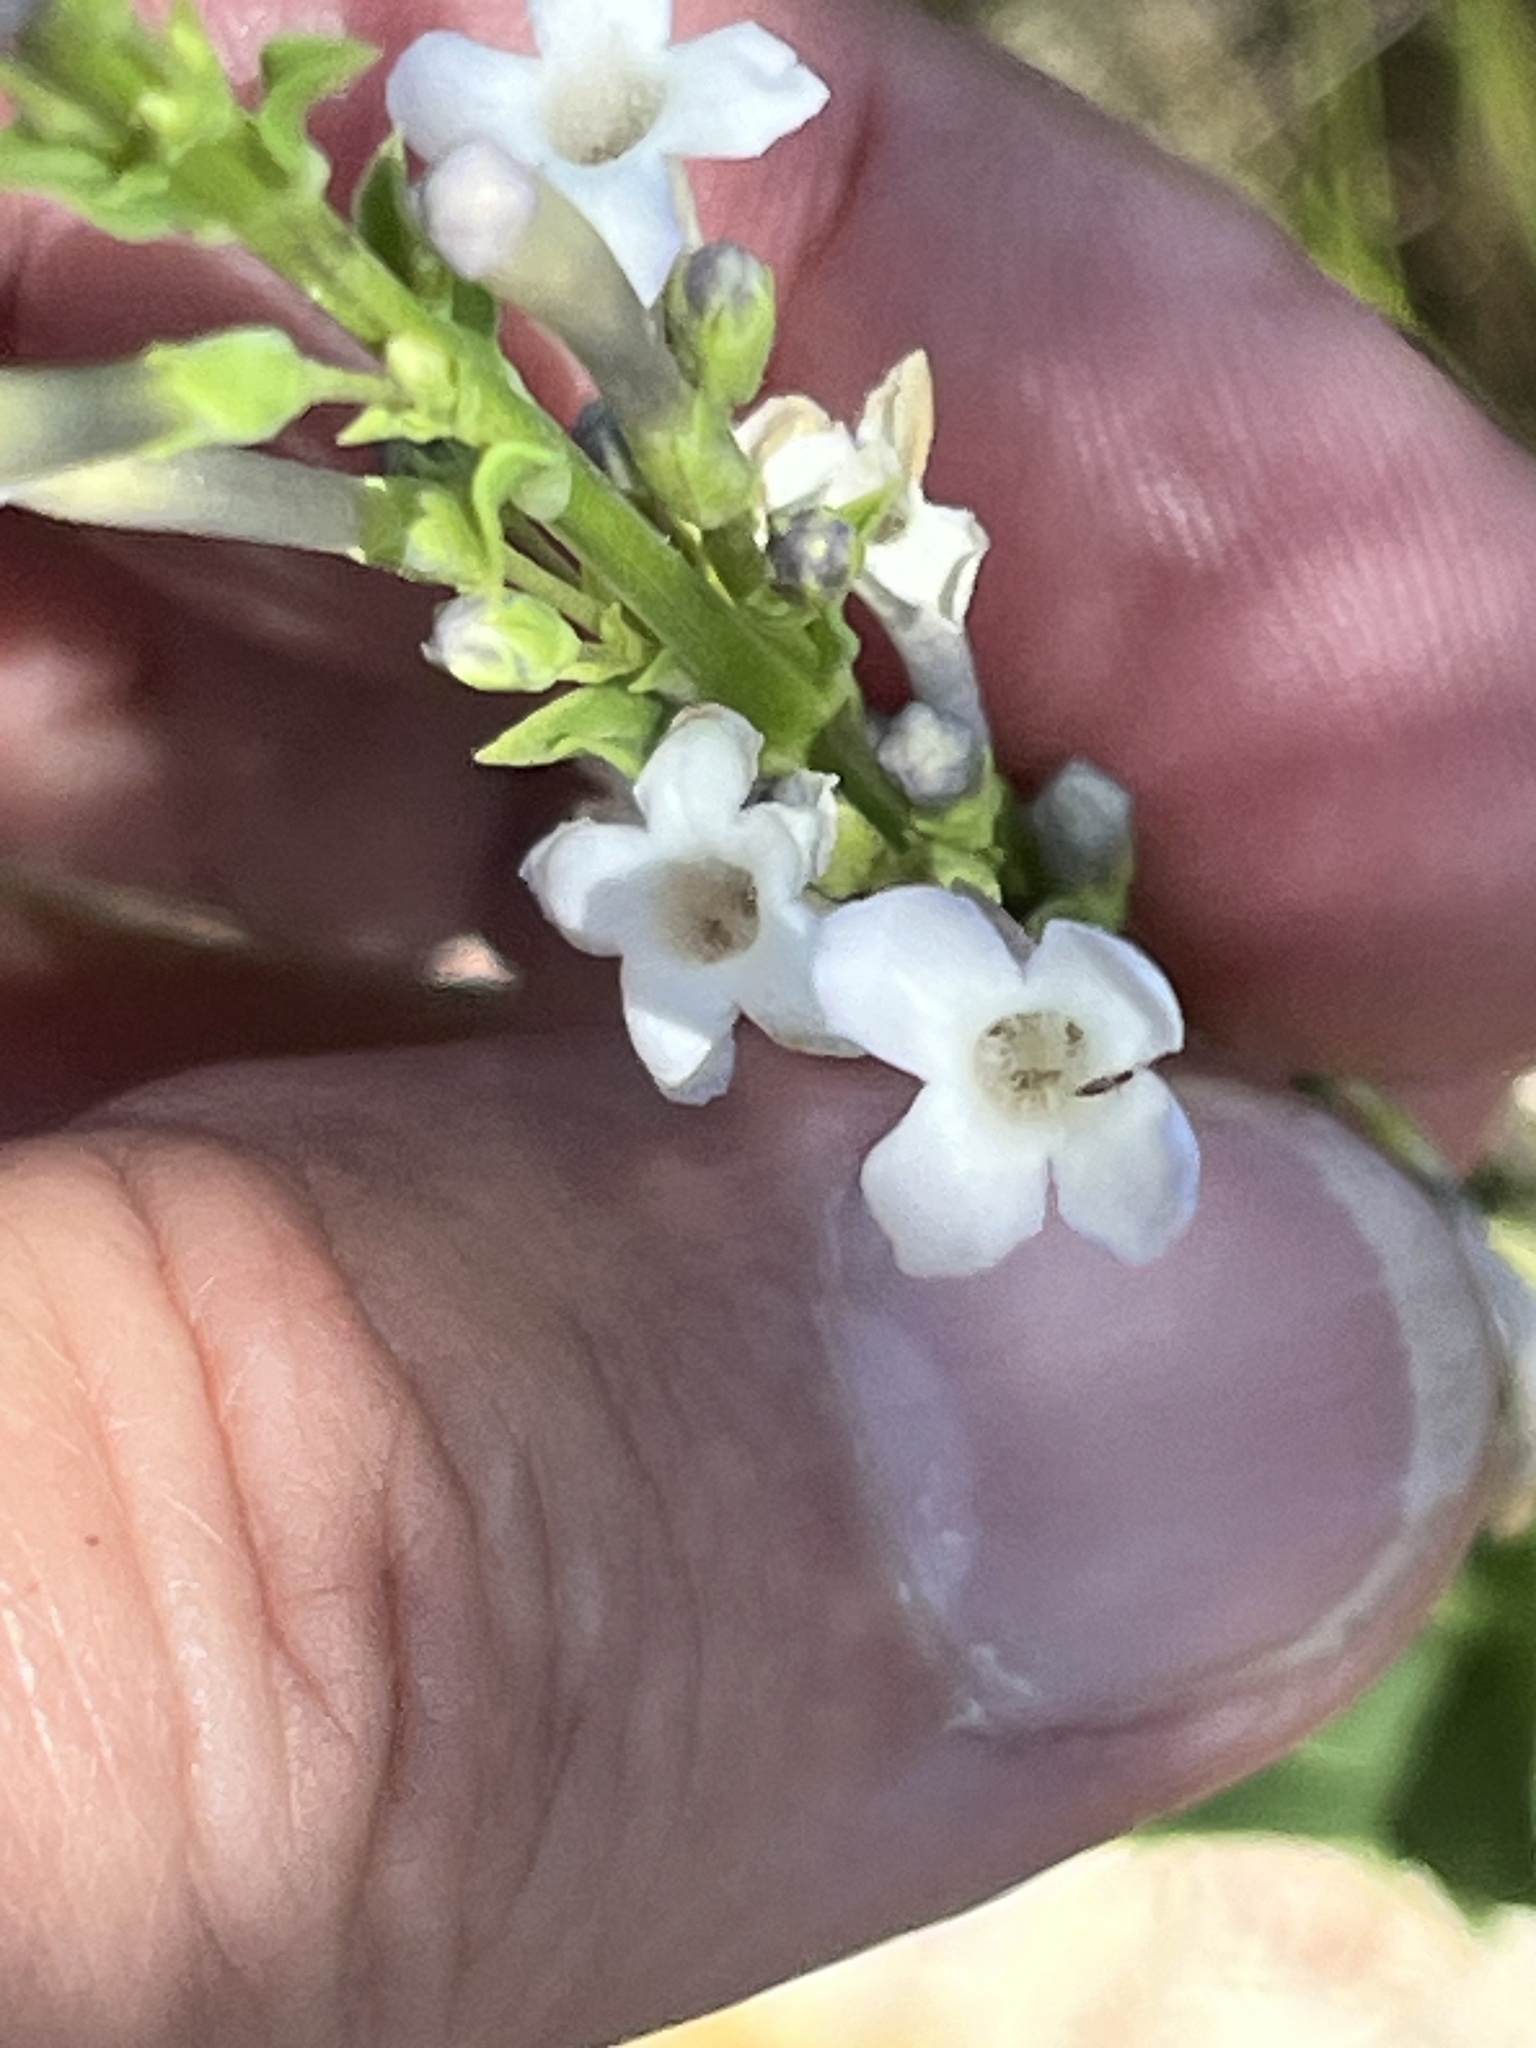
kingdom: Plantae
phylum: Tracheophyta
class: Magnoliopsida
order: Lamiales
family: Scrophulariaceae
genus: Freylinia
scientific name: Freylinia longiflora
